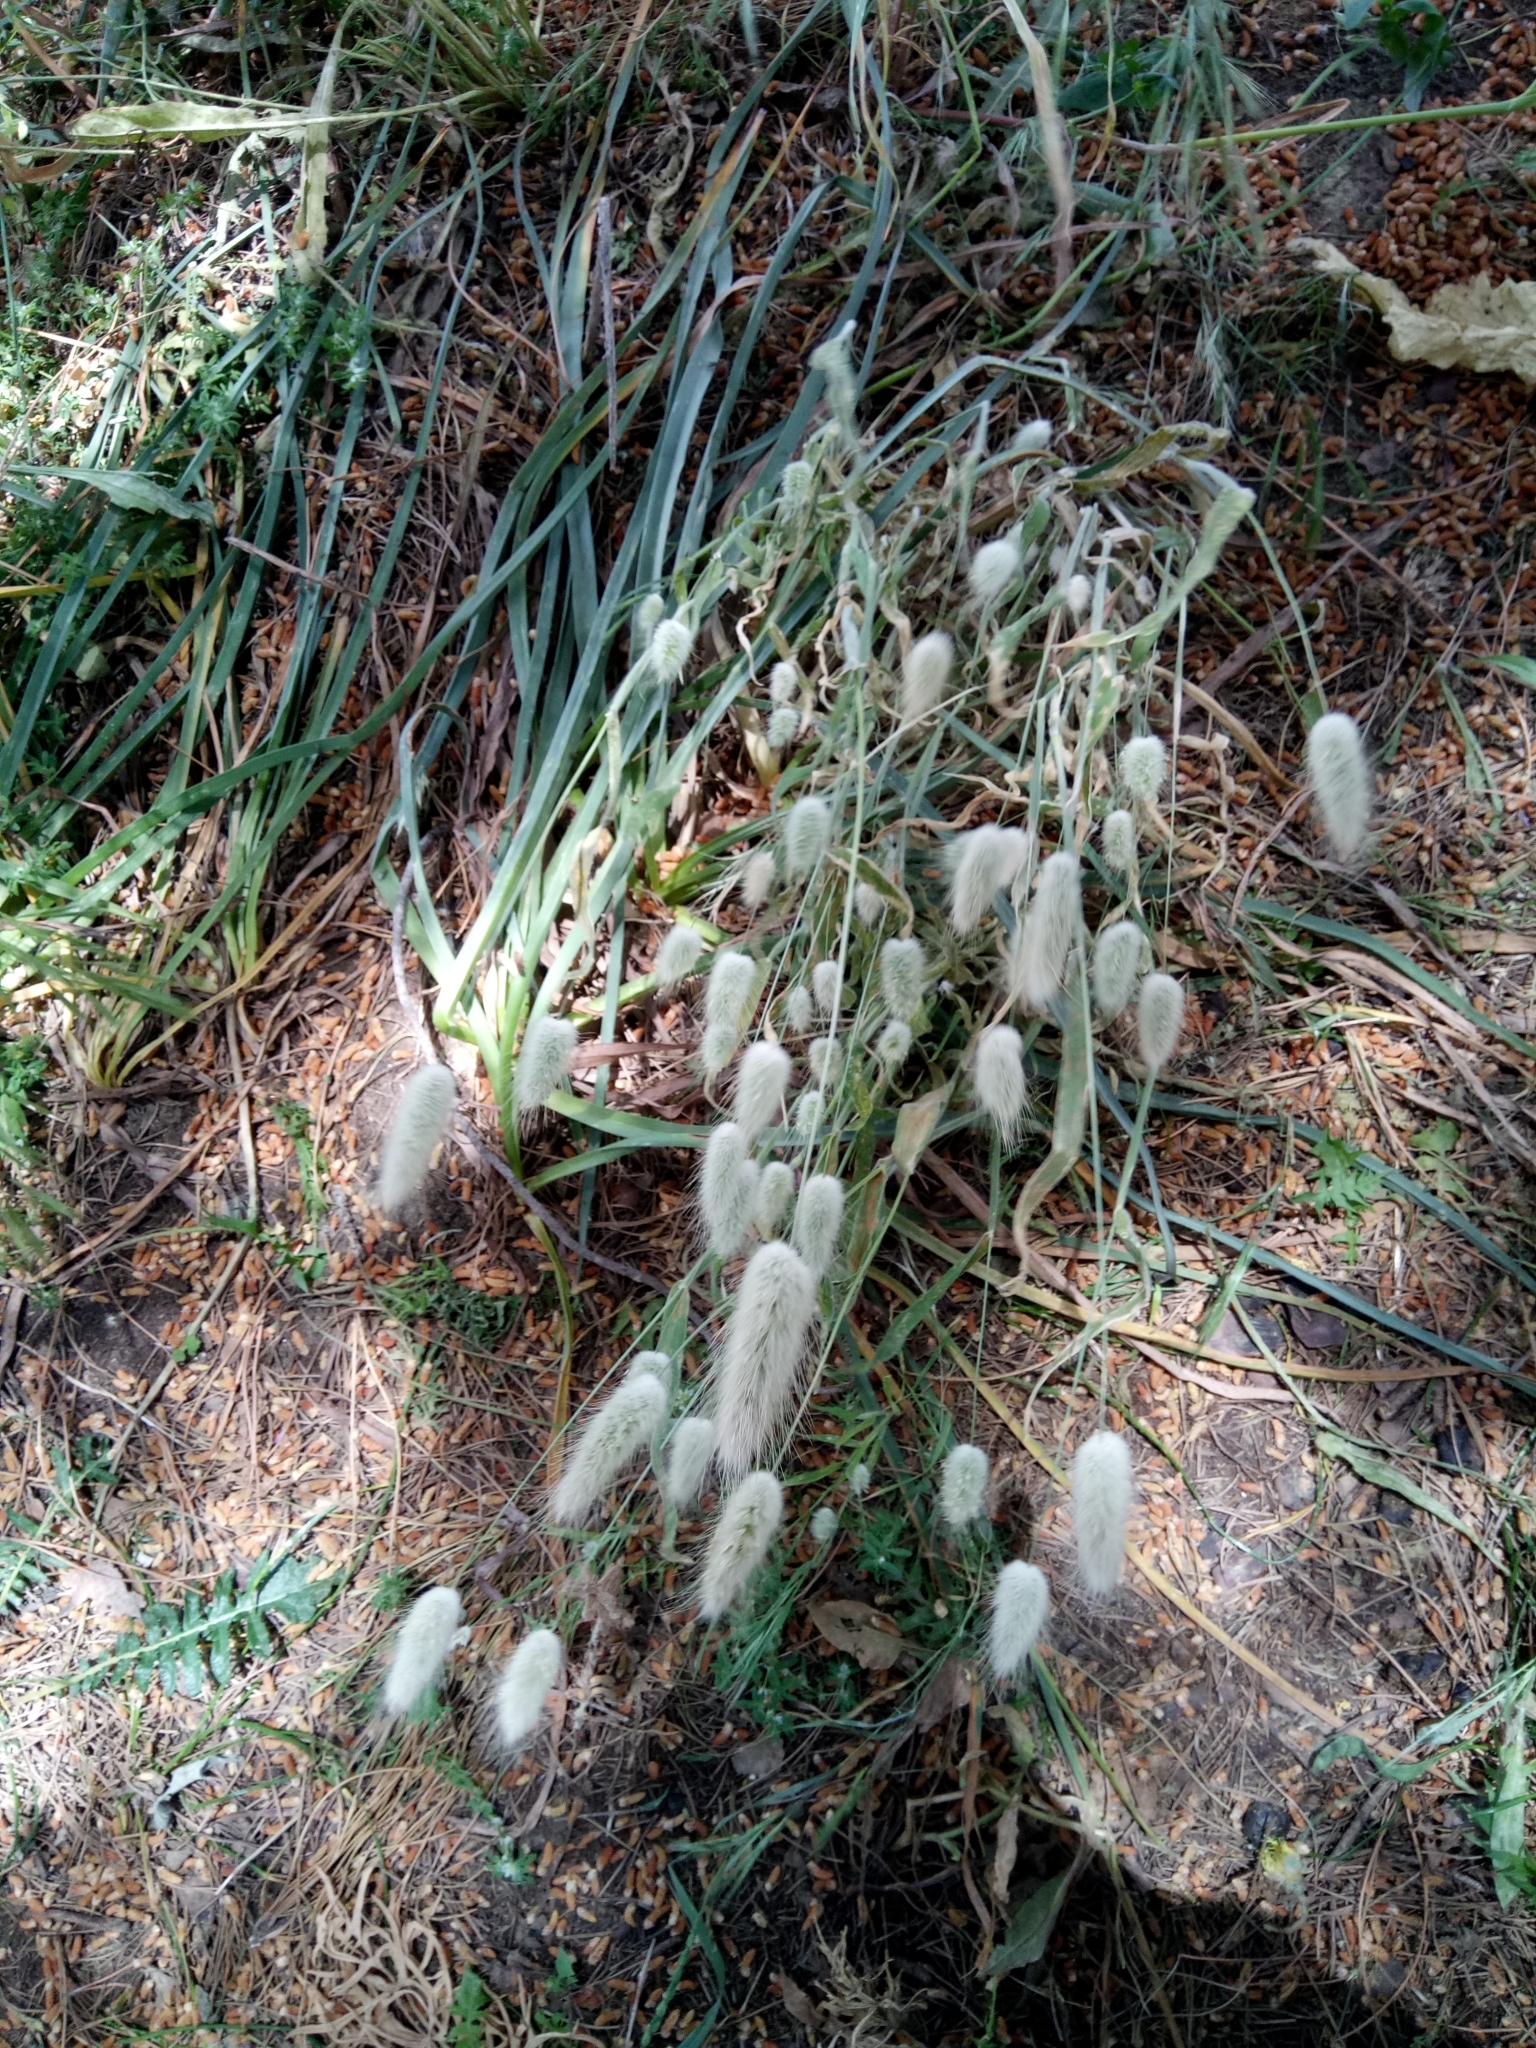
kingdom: Plantae
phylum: Tracheophyta
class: Liliopsida
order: Poales
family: Poaceae
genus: Lagurus
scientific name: Lagurus ovatus
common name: Hare's-tail
